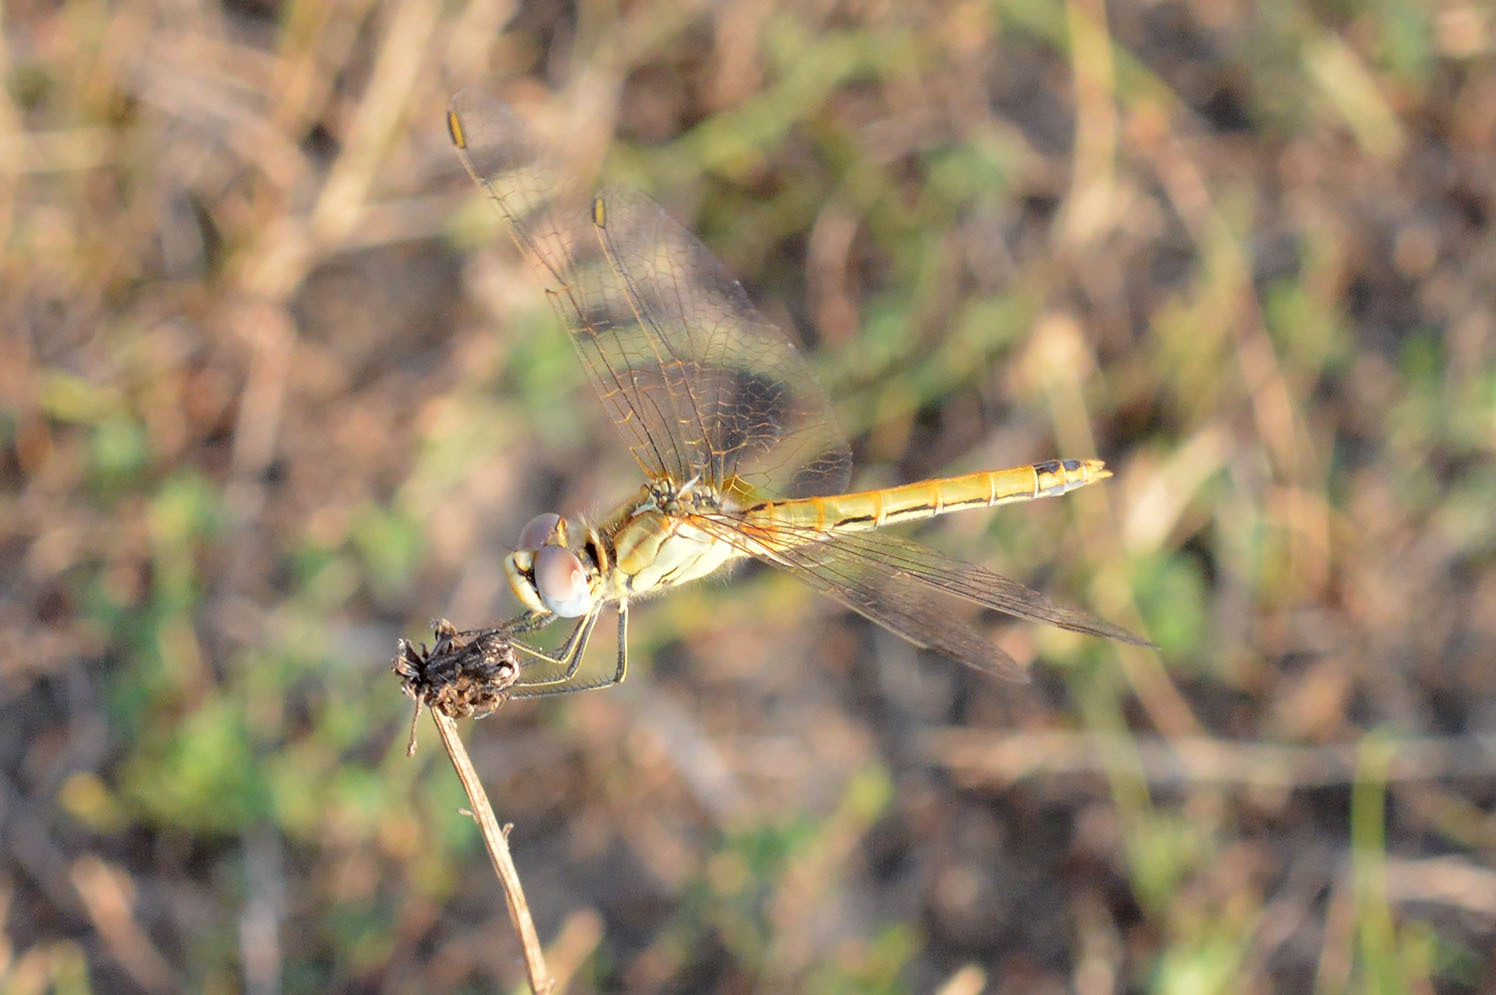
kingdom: Animalia
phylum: Arthropoda
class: Insecta
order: Odonata
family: Libellulidae
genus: Sympetrum
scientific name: Sympetrum fonscolombii
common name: Red-veined darter
